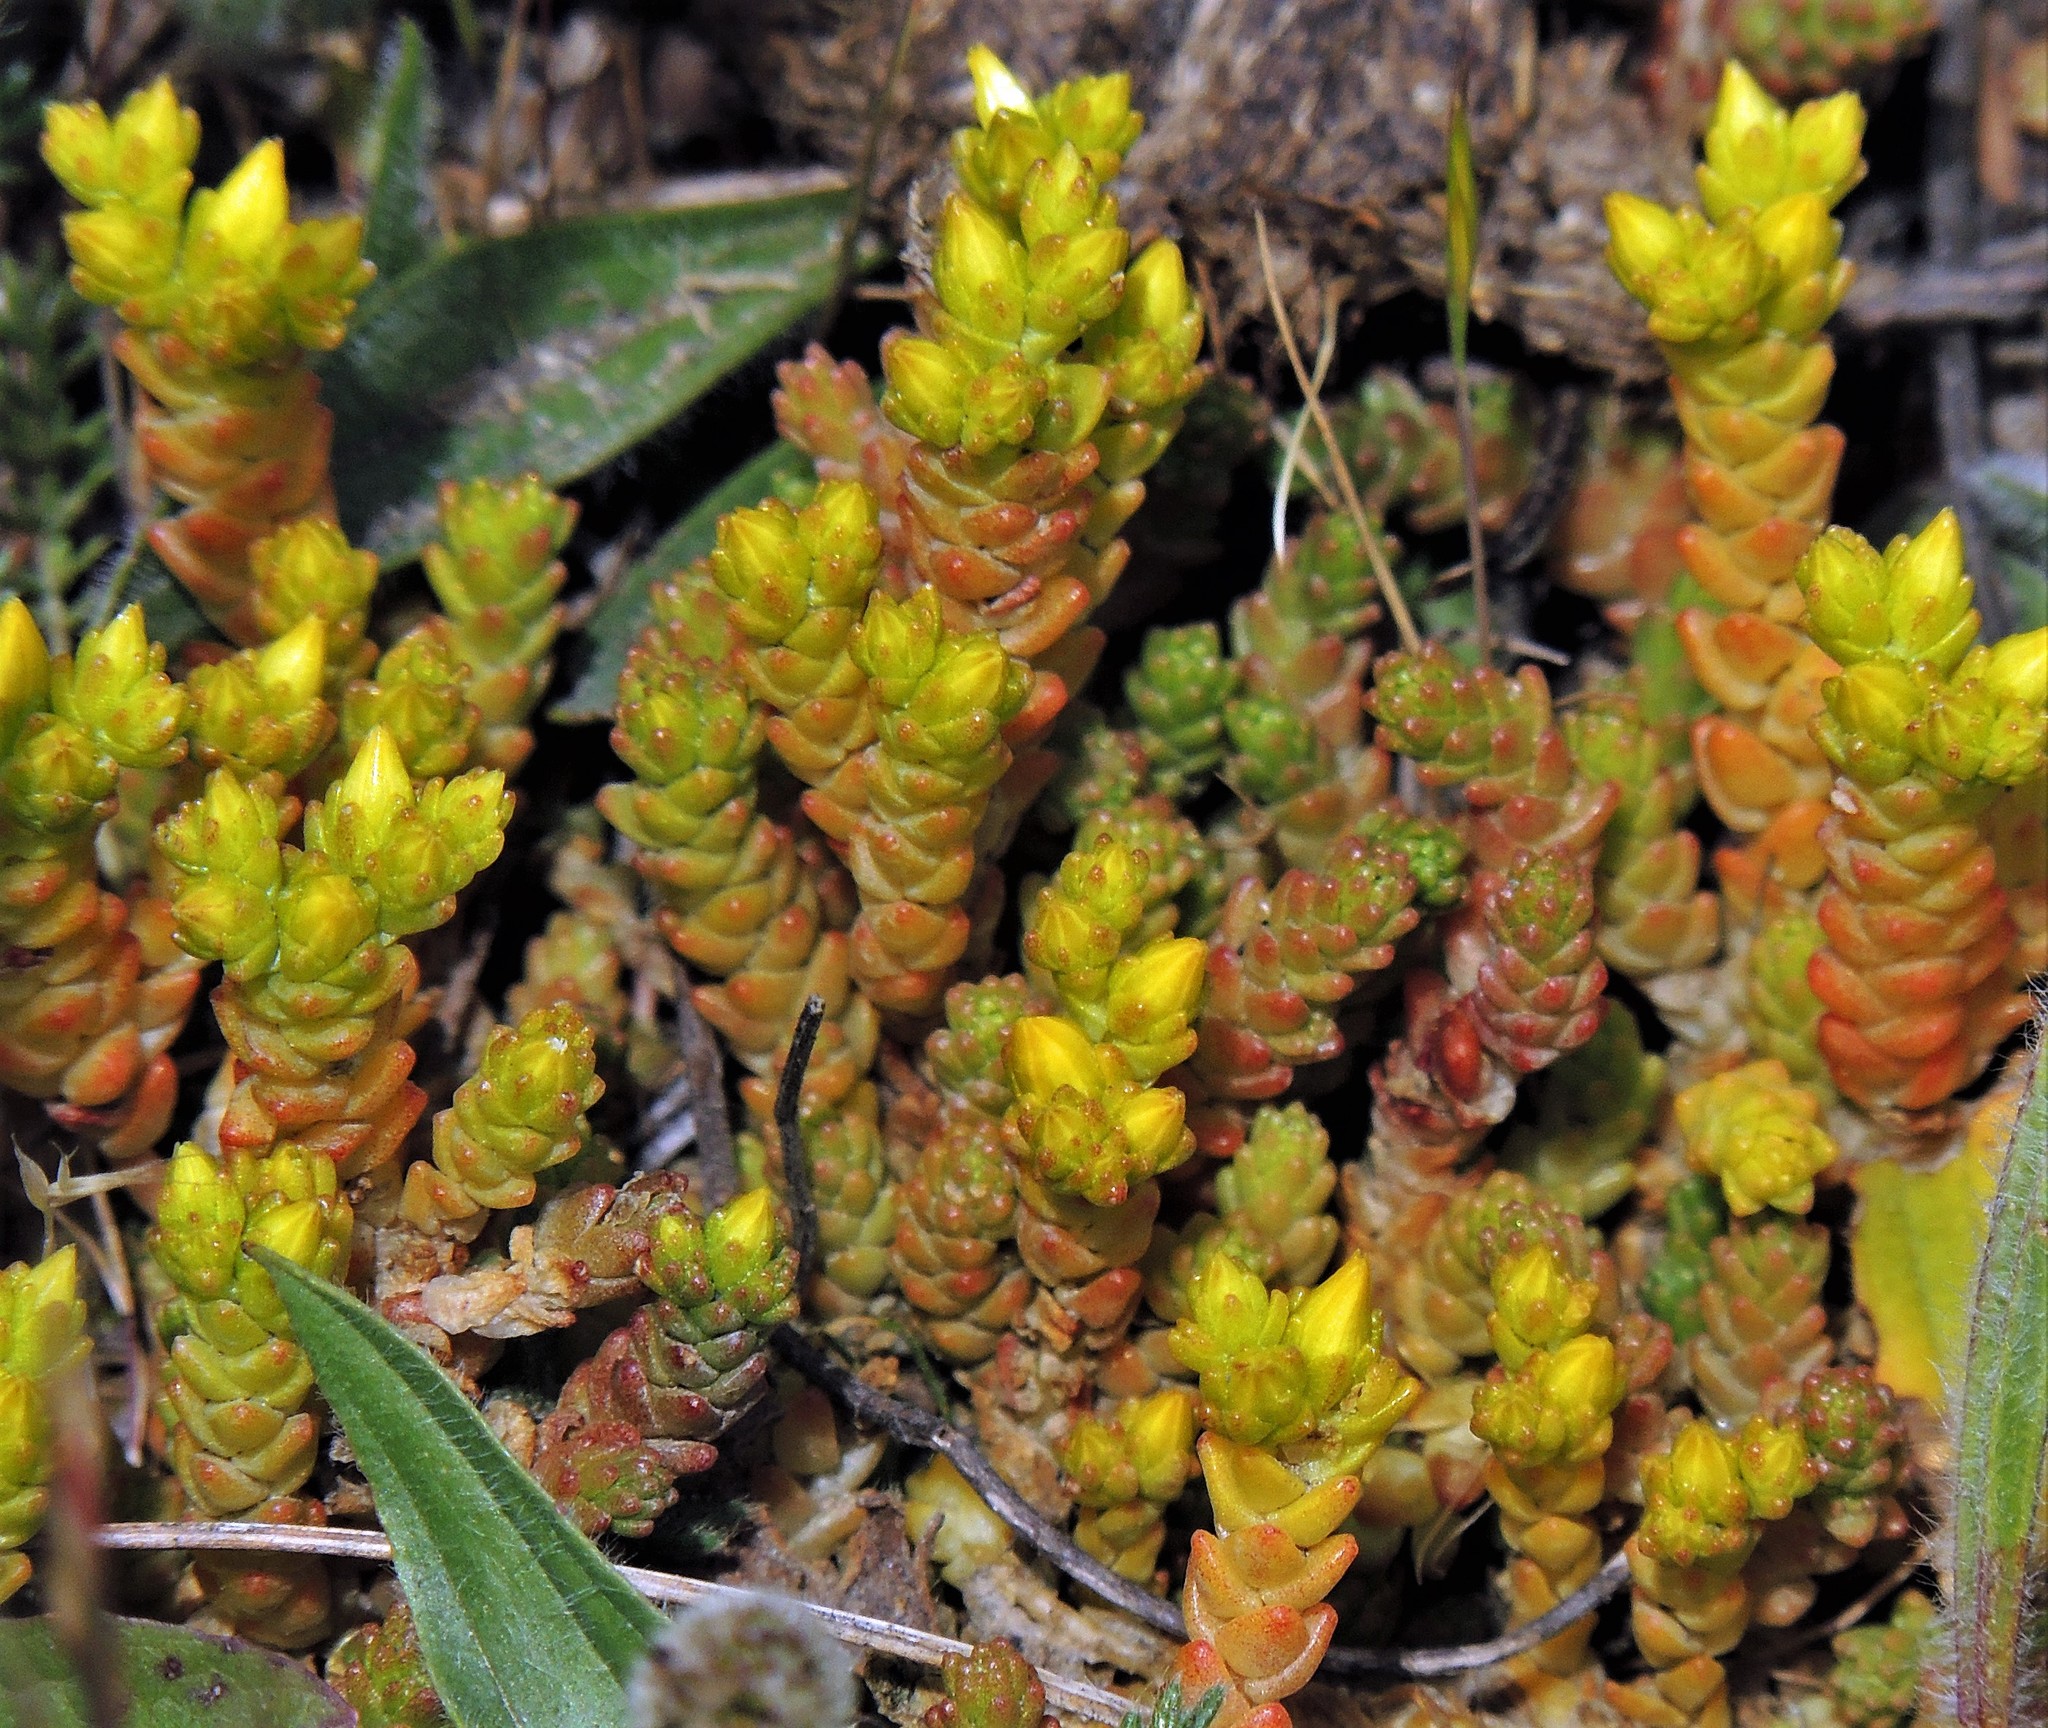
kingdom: Plantae
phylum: Tracheophyta
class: Magnoliopsida
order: Saxifragales
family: Crassulaceae
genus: Sedum
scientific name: Sedum acre
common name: Biting stonecrop
